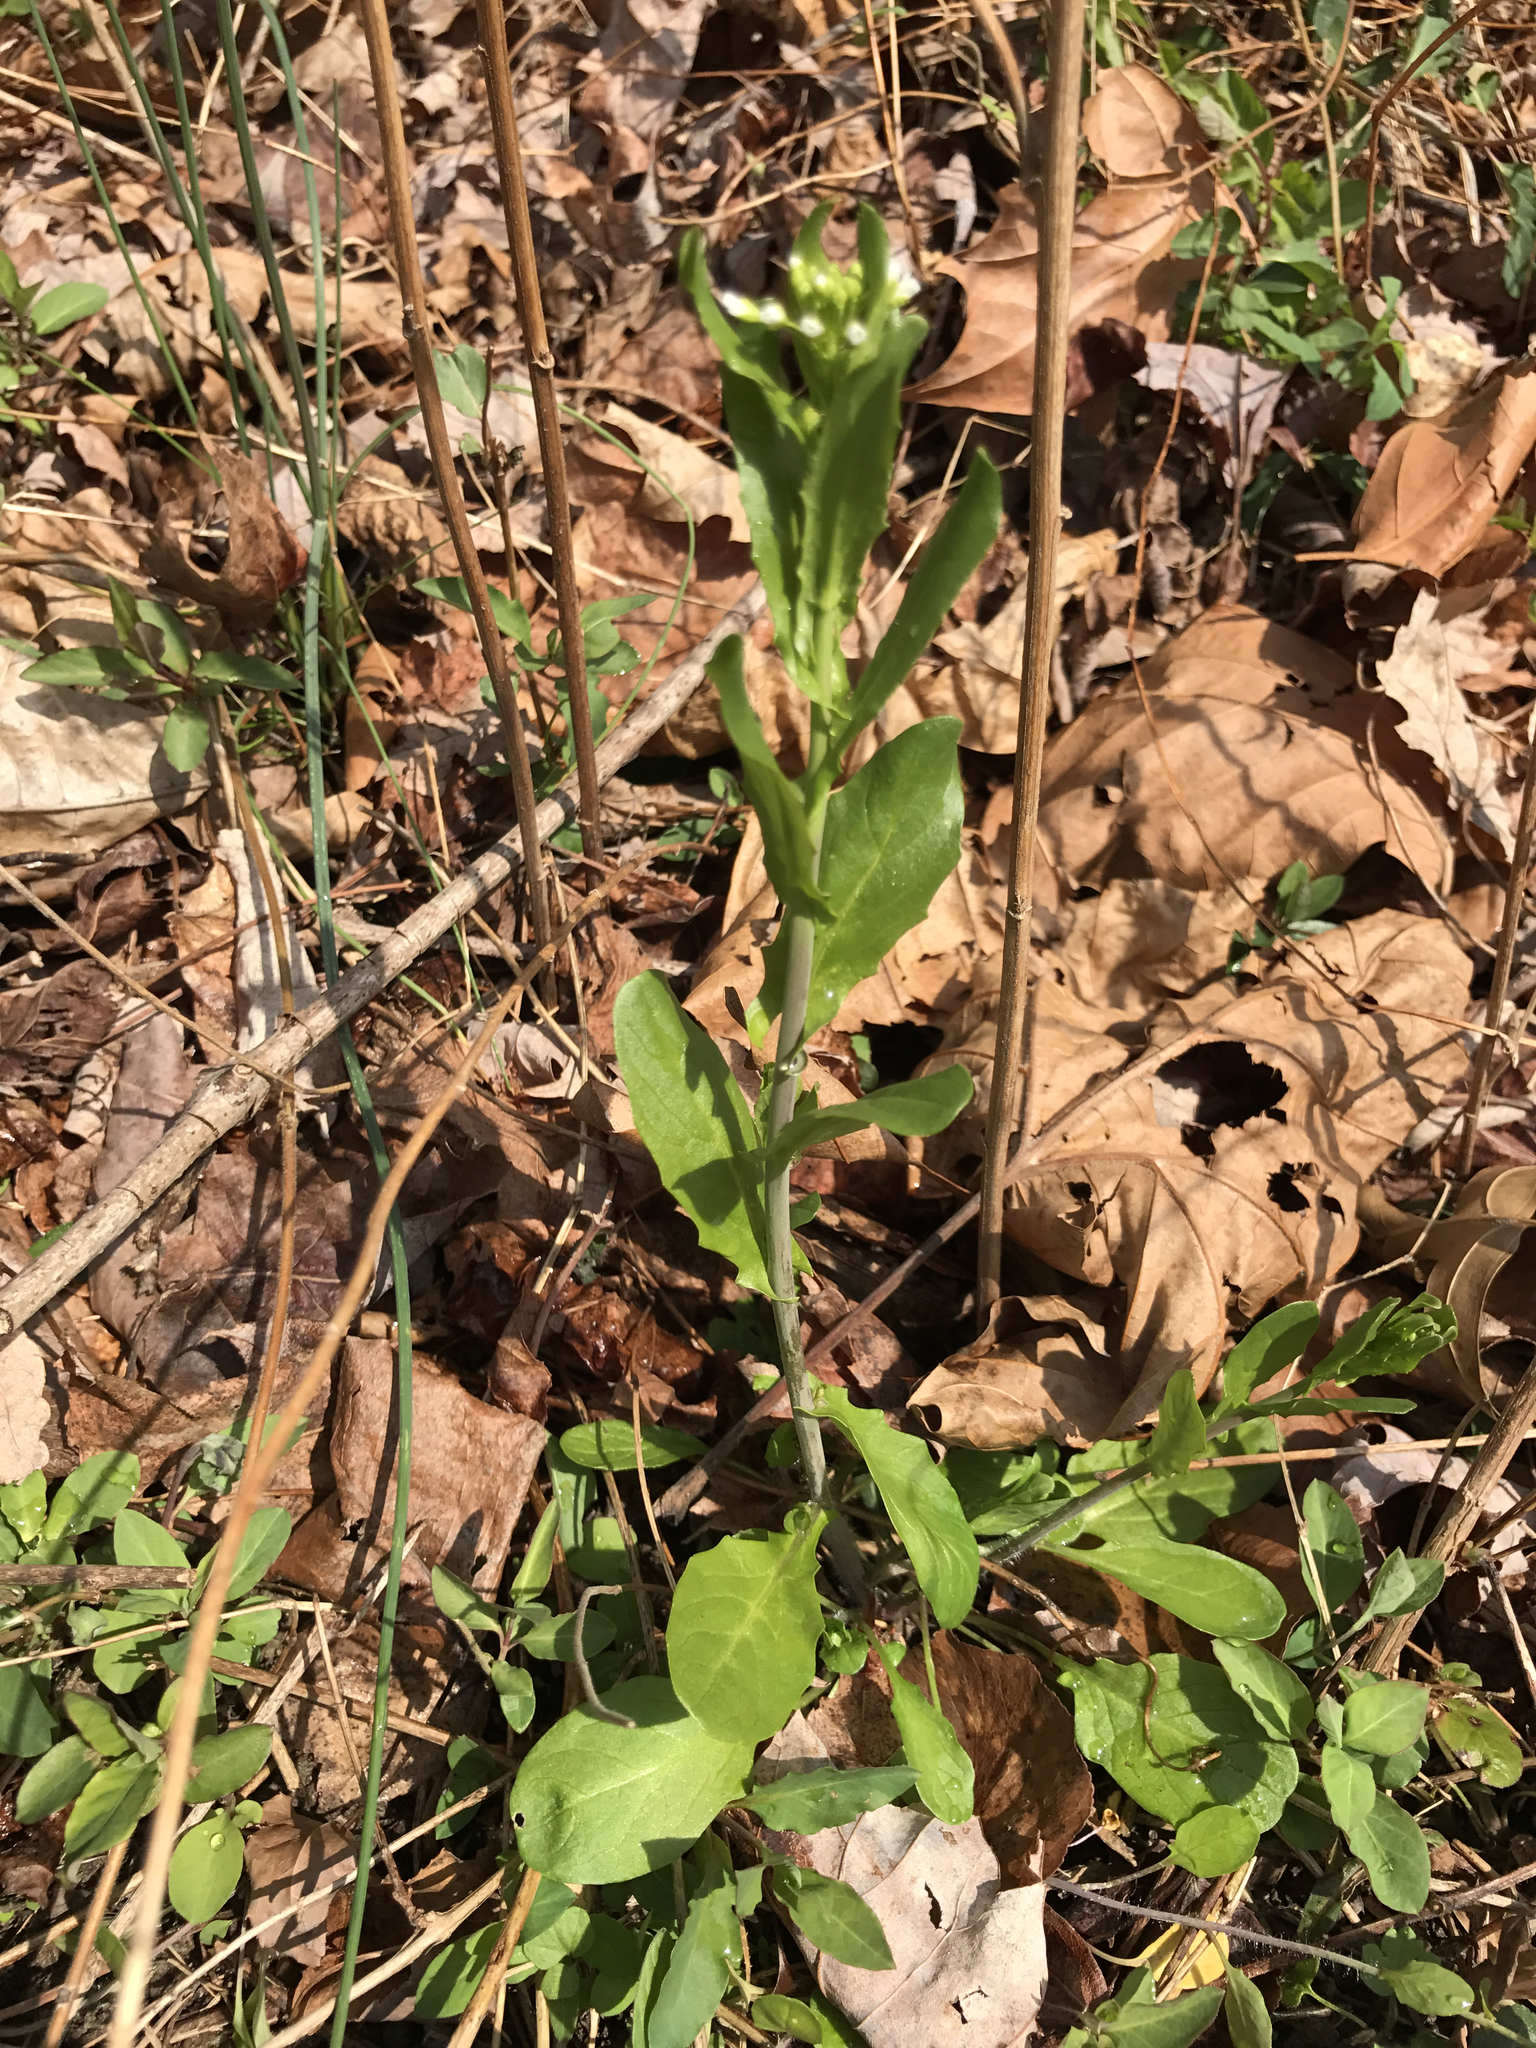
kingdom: Plantae
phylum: Tracheophyta
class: Magnoliopsida
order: Brassicales
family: Brassicaceae
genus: Mummenhoffia
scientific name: Mummenhoffia alliacea
